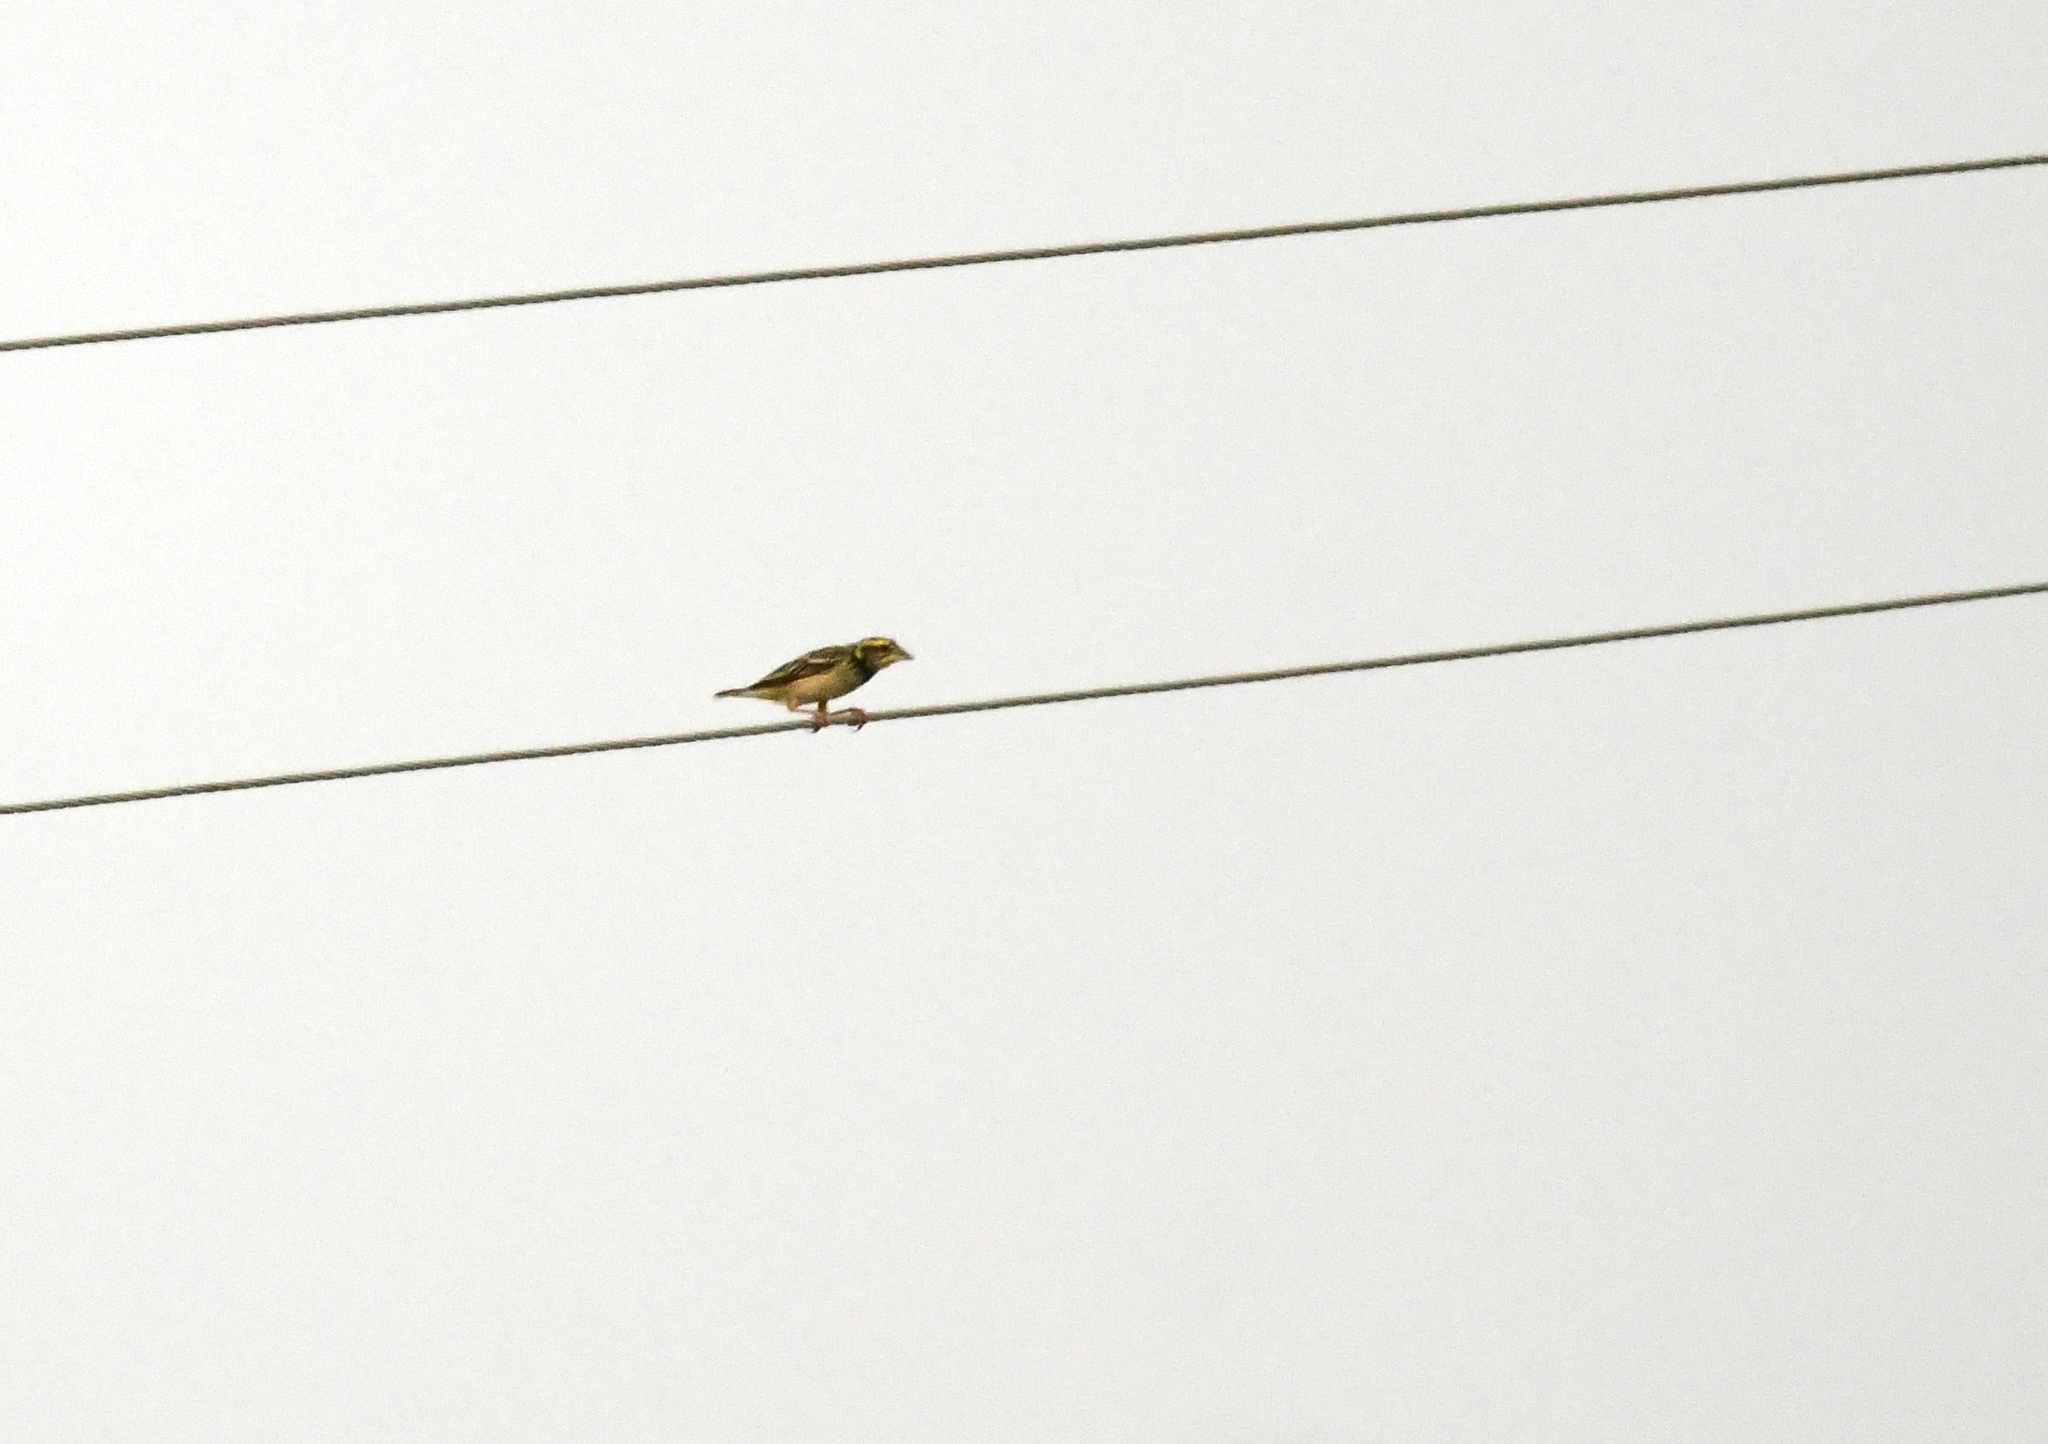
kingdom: Animalia
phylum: Chordata
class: Aves
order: Passeriformes
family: Ploceidae
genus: Ploceus
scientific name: Ploceus benghalensis
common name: Black-breasted weaver
